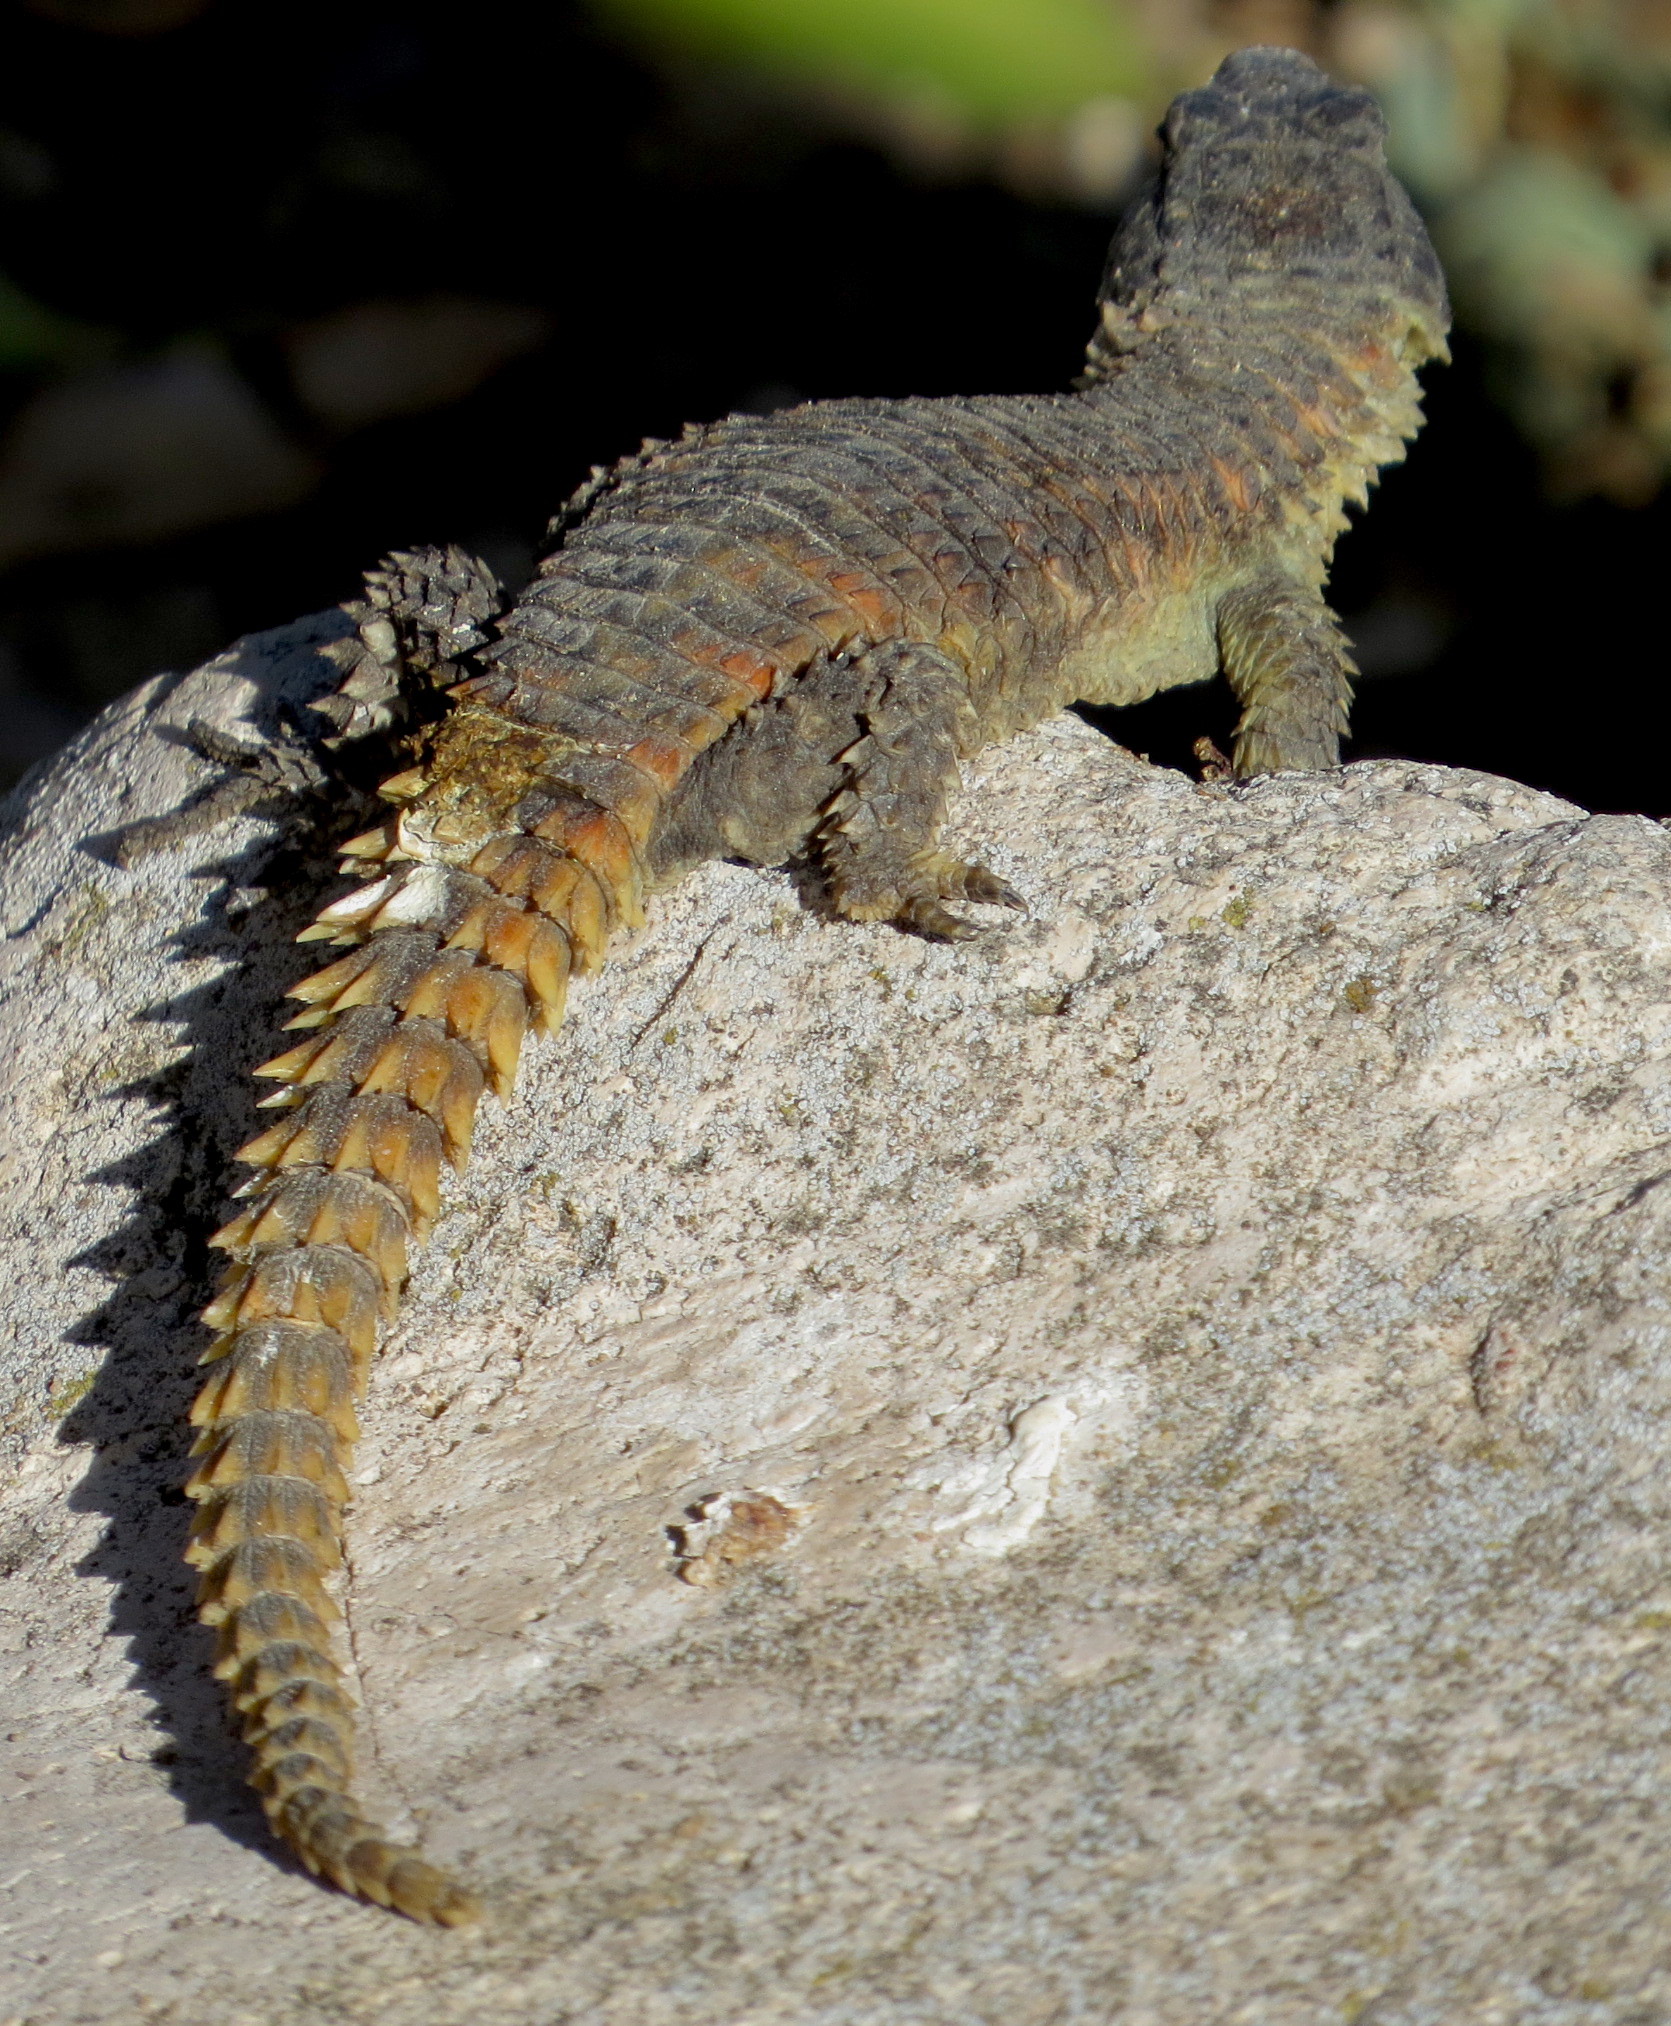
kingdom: Animalia
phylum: Chordata
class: Squamata
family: Cordylidae
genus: Cordylus
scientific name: Cordylus cordylus
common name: Cape girdled lizard
